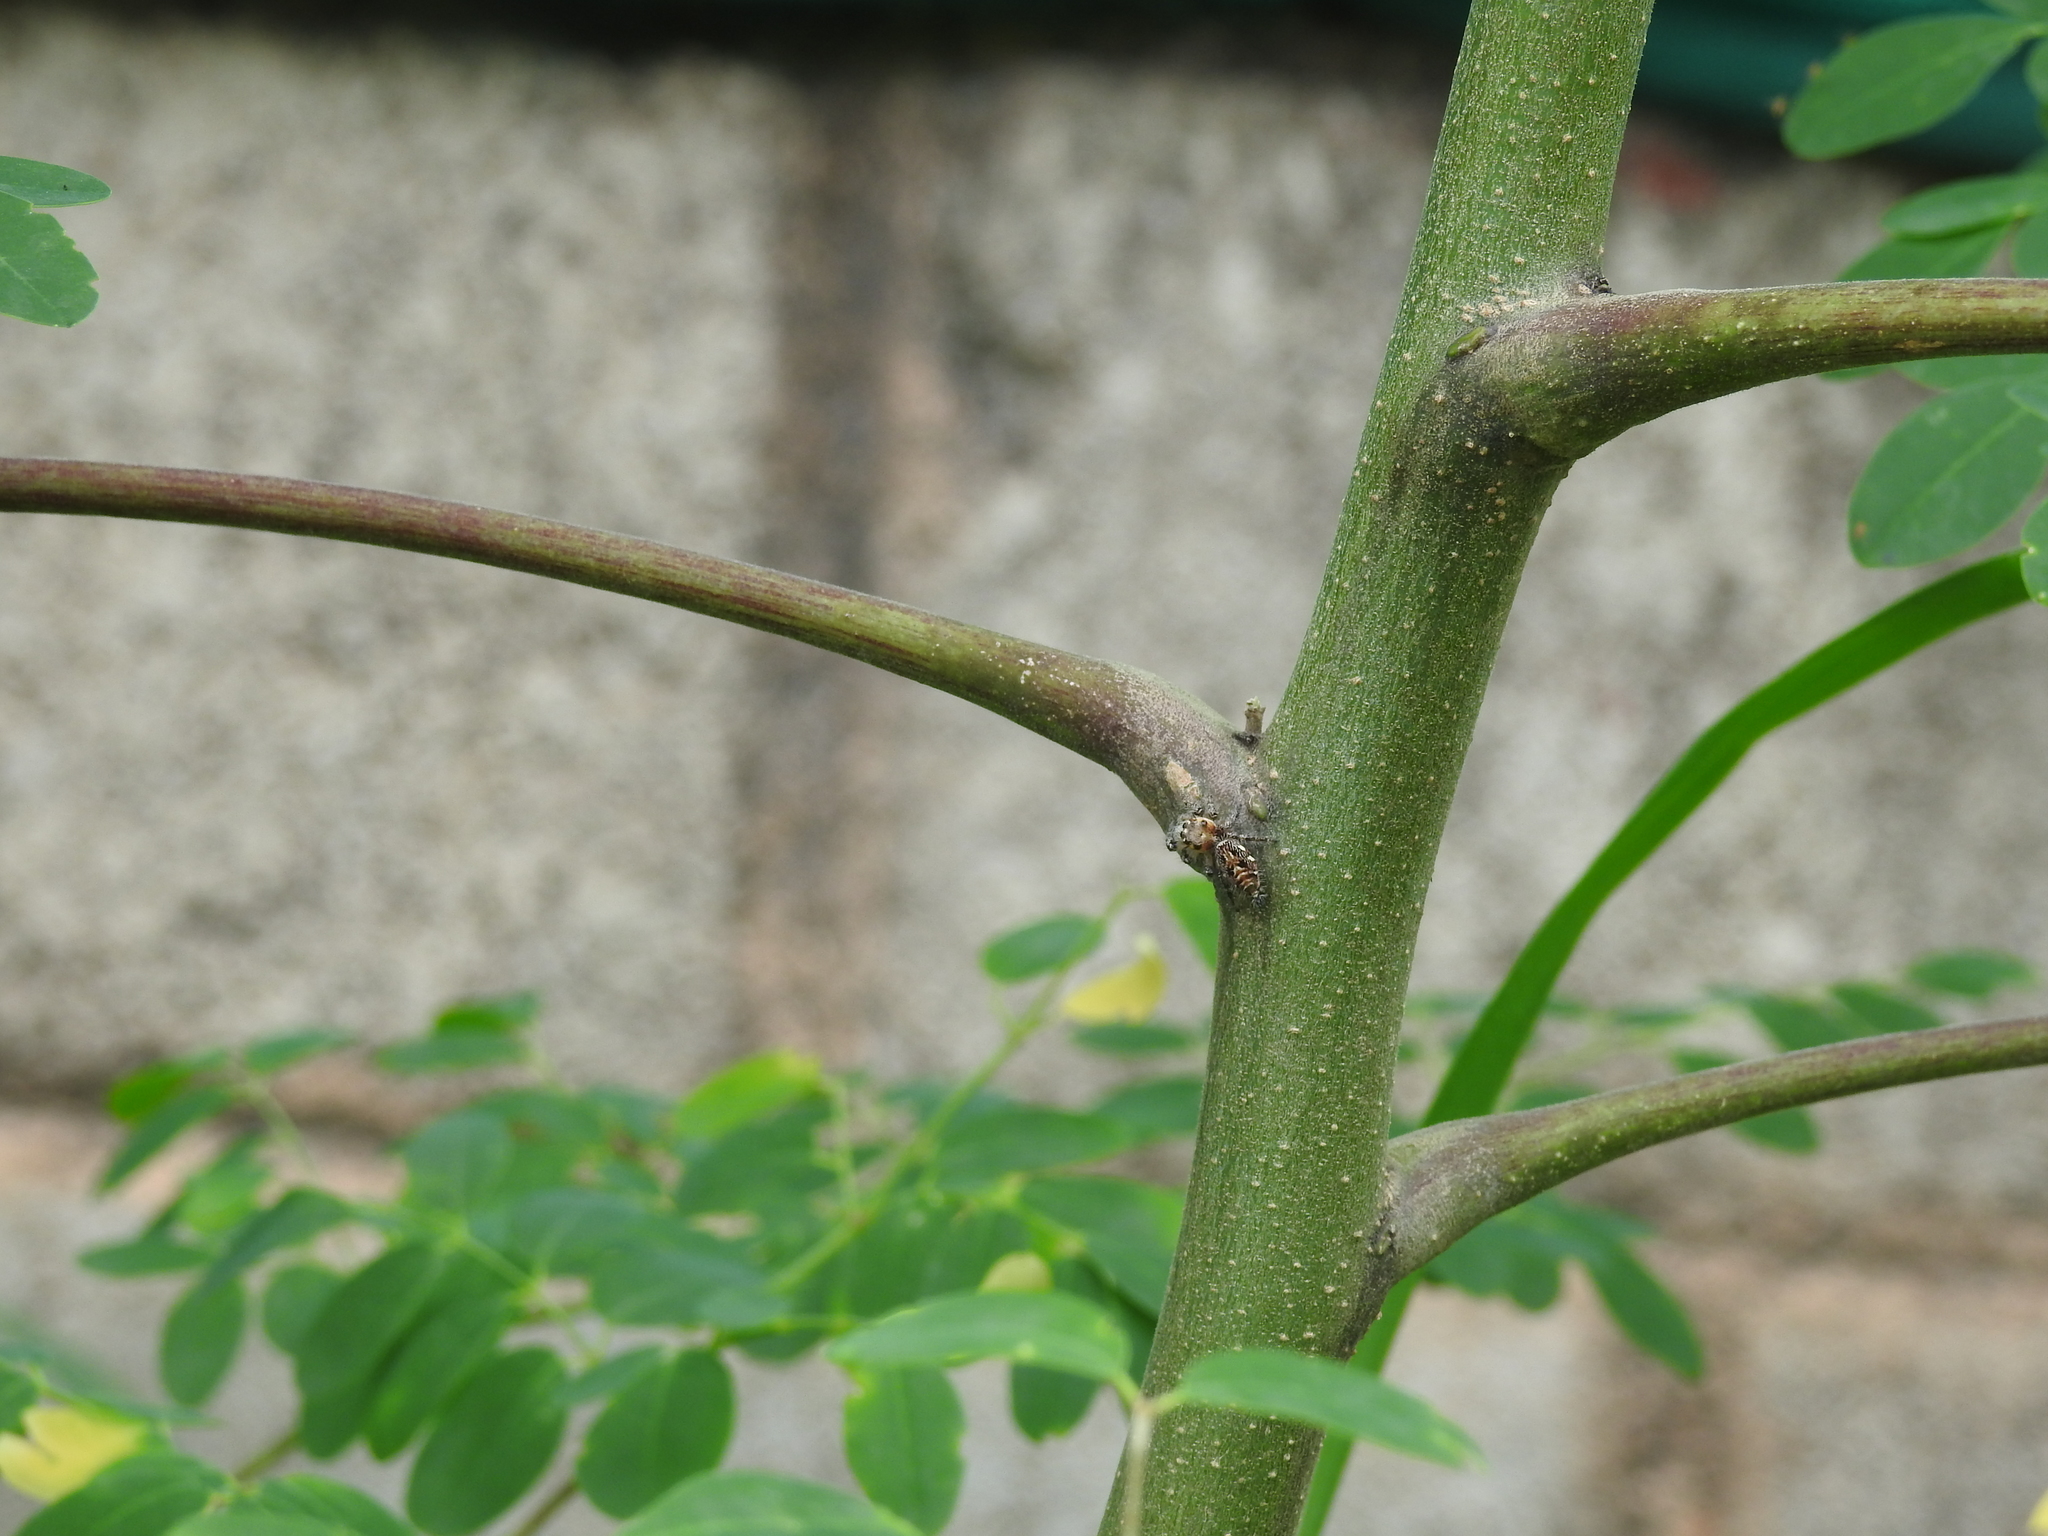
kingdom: Animalia
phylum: Arthropoda
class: Arachnida
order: Araneae
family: Salticidae
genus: Hyllus
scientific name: Hyllus semicupreus
